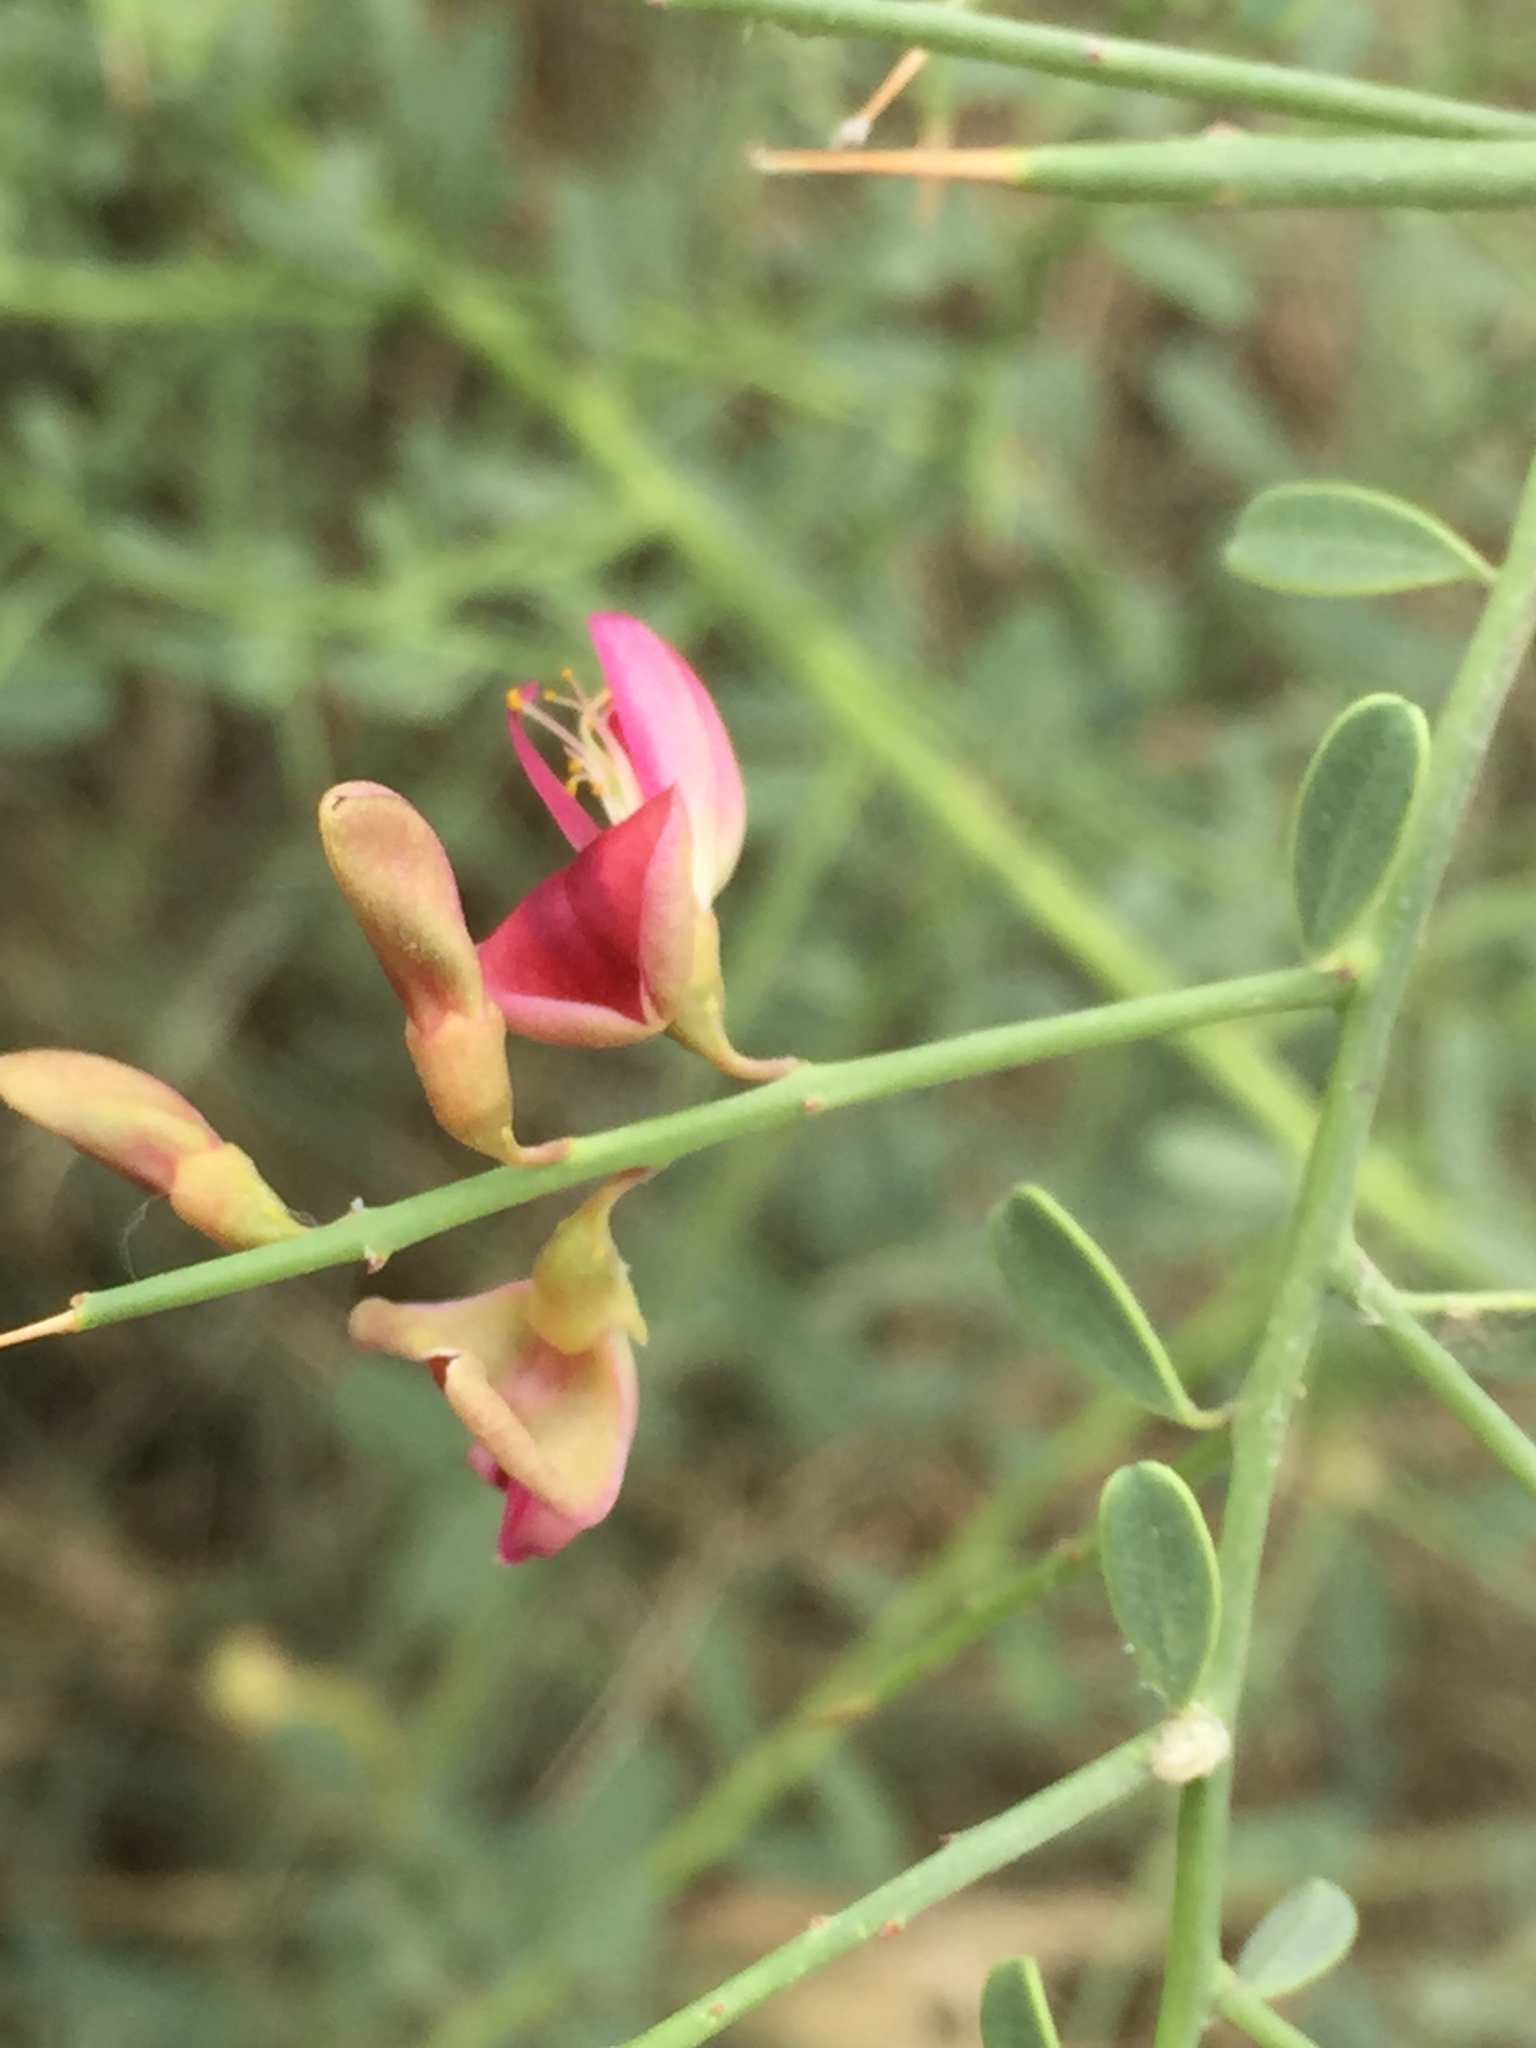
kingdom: Plantae
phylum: Tracheophyta
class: Magnoliopsida
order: Fabales
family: Fabaceae
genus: Alhagi
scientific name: Alhagi graecorum
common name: Persian mannaplant
